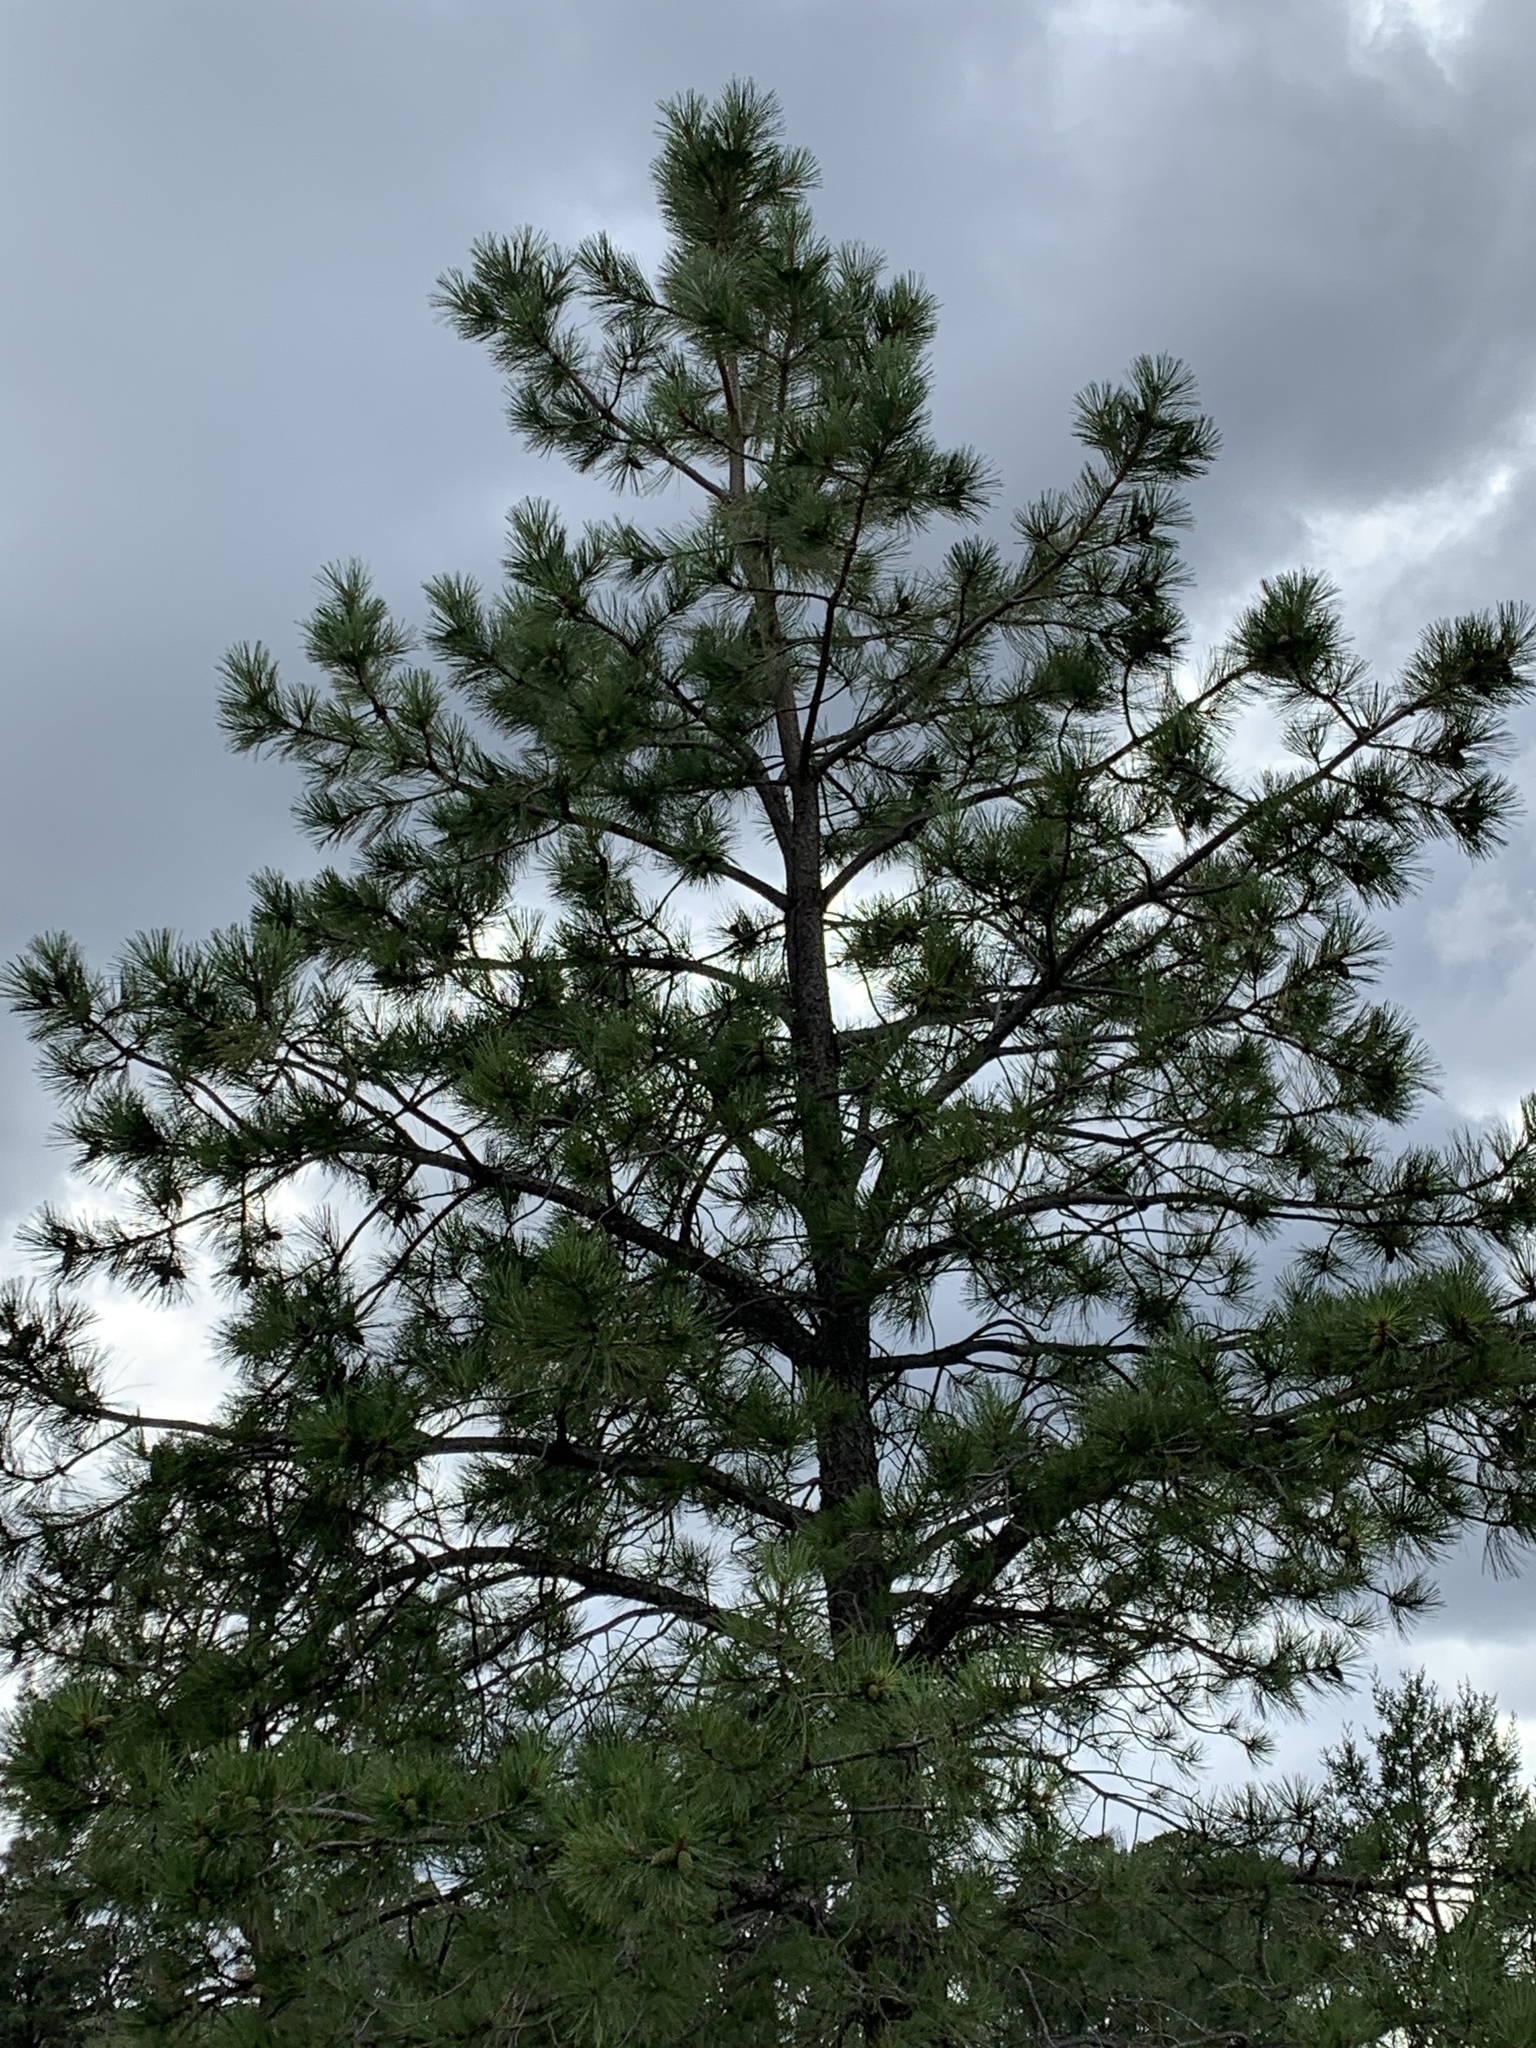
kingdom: Plantae
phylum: Tracheophyta
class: Pinopsida
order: Pinales
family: Pinaceae
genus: Pinus
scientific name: Pinus ponderosa
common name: Western yellow-pine
